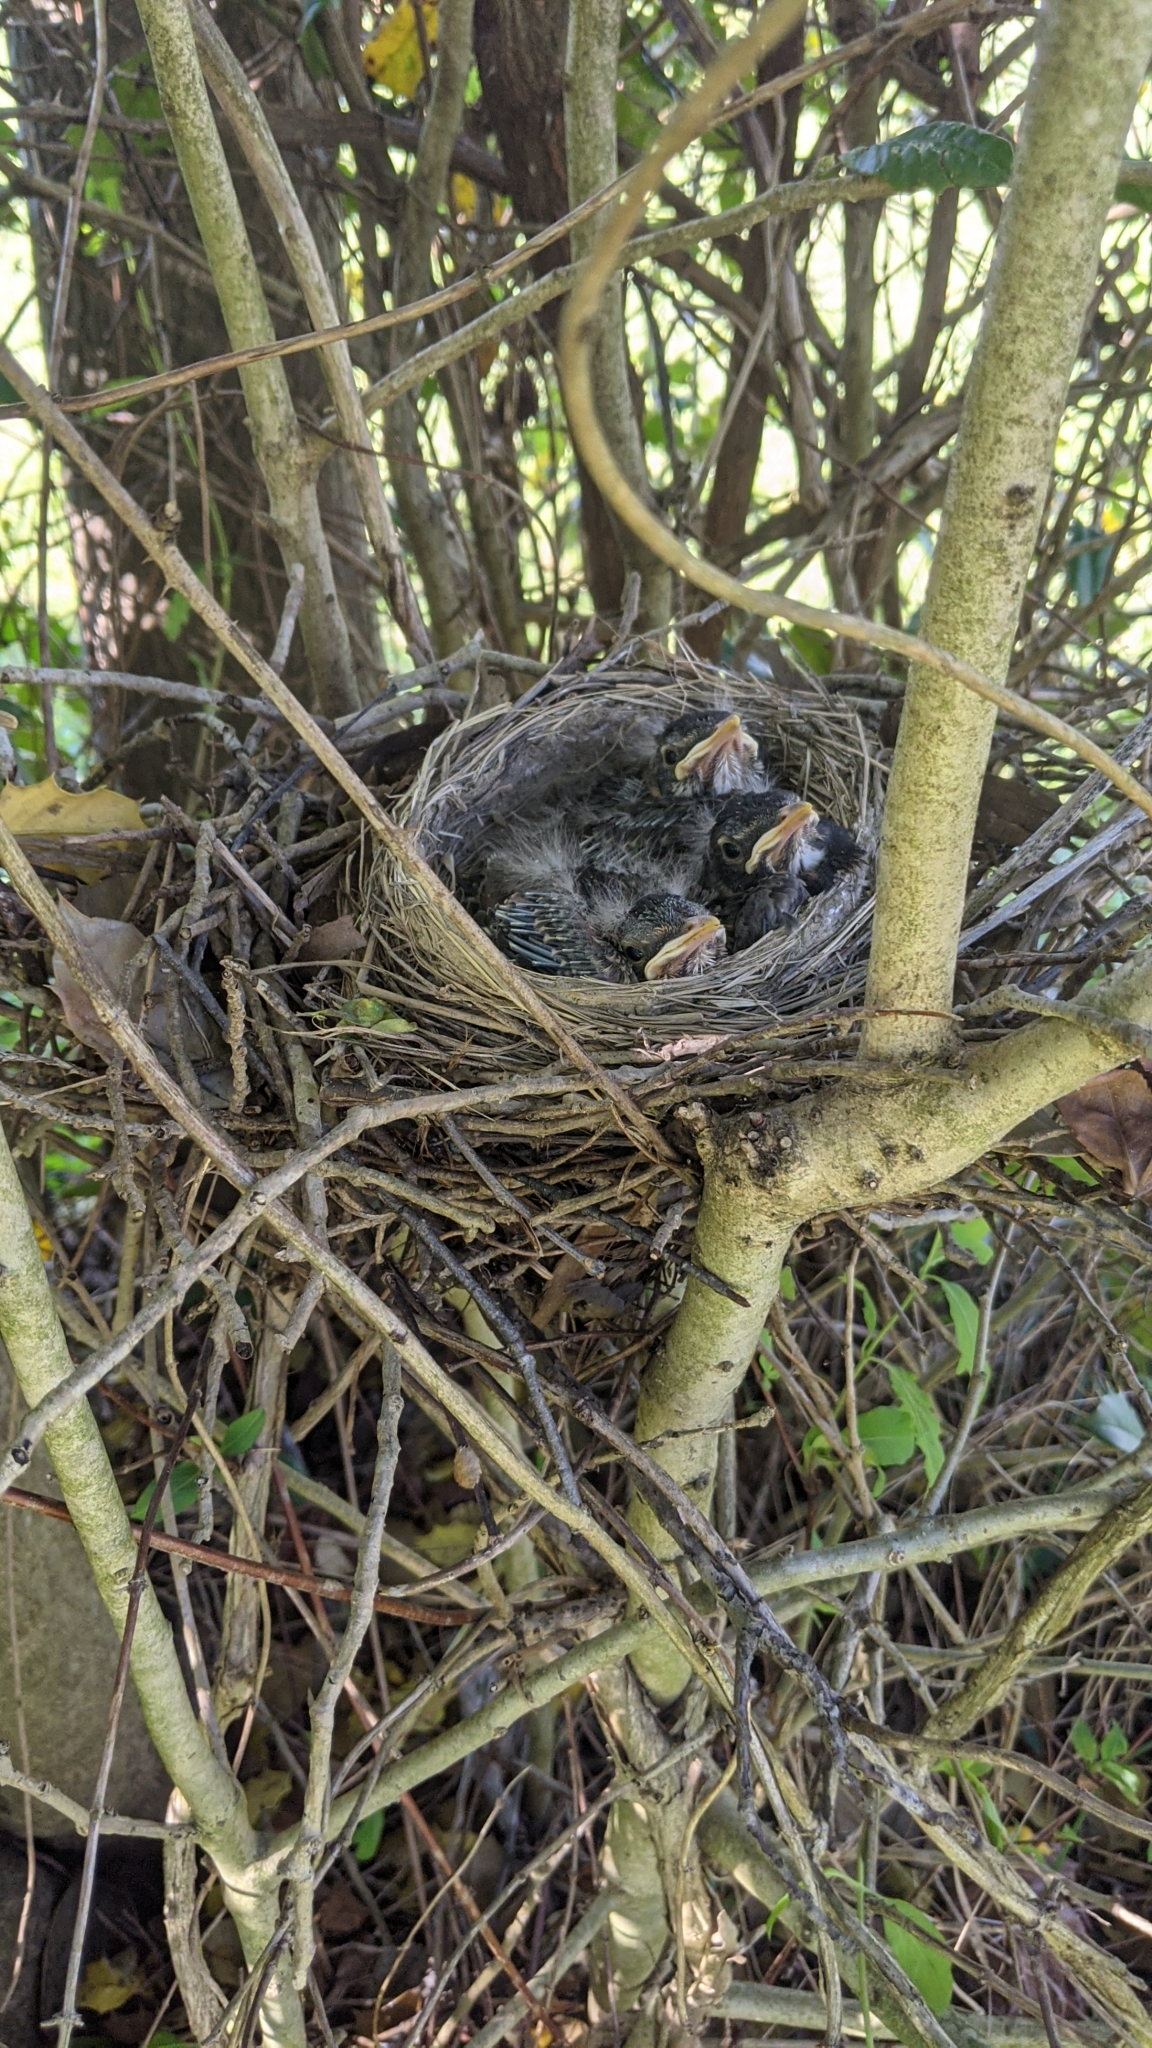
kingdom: Animalia
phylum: Chordata
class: Aves
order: Passeriformes
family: Turdidae
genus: Turdus
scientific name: Turdus migratorius
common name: American robin
